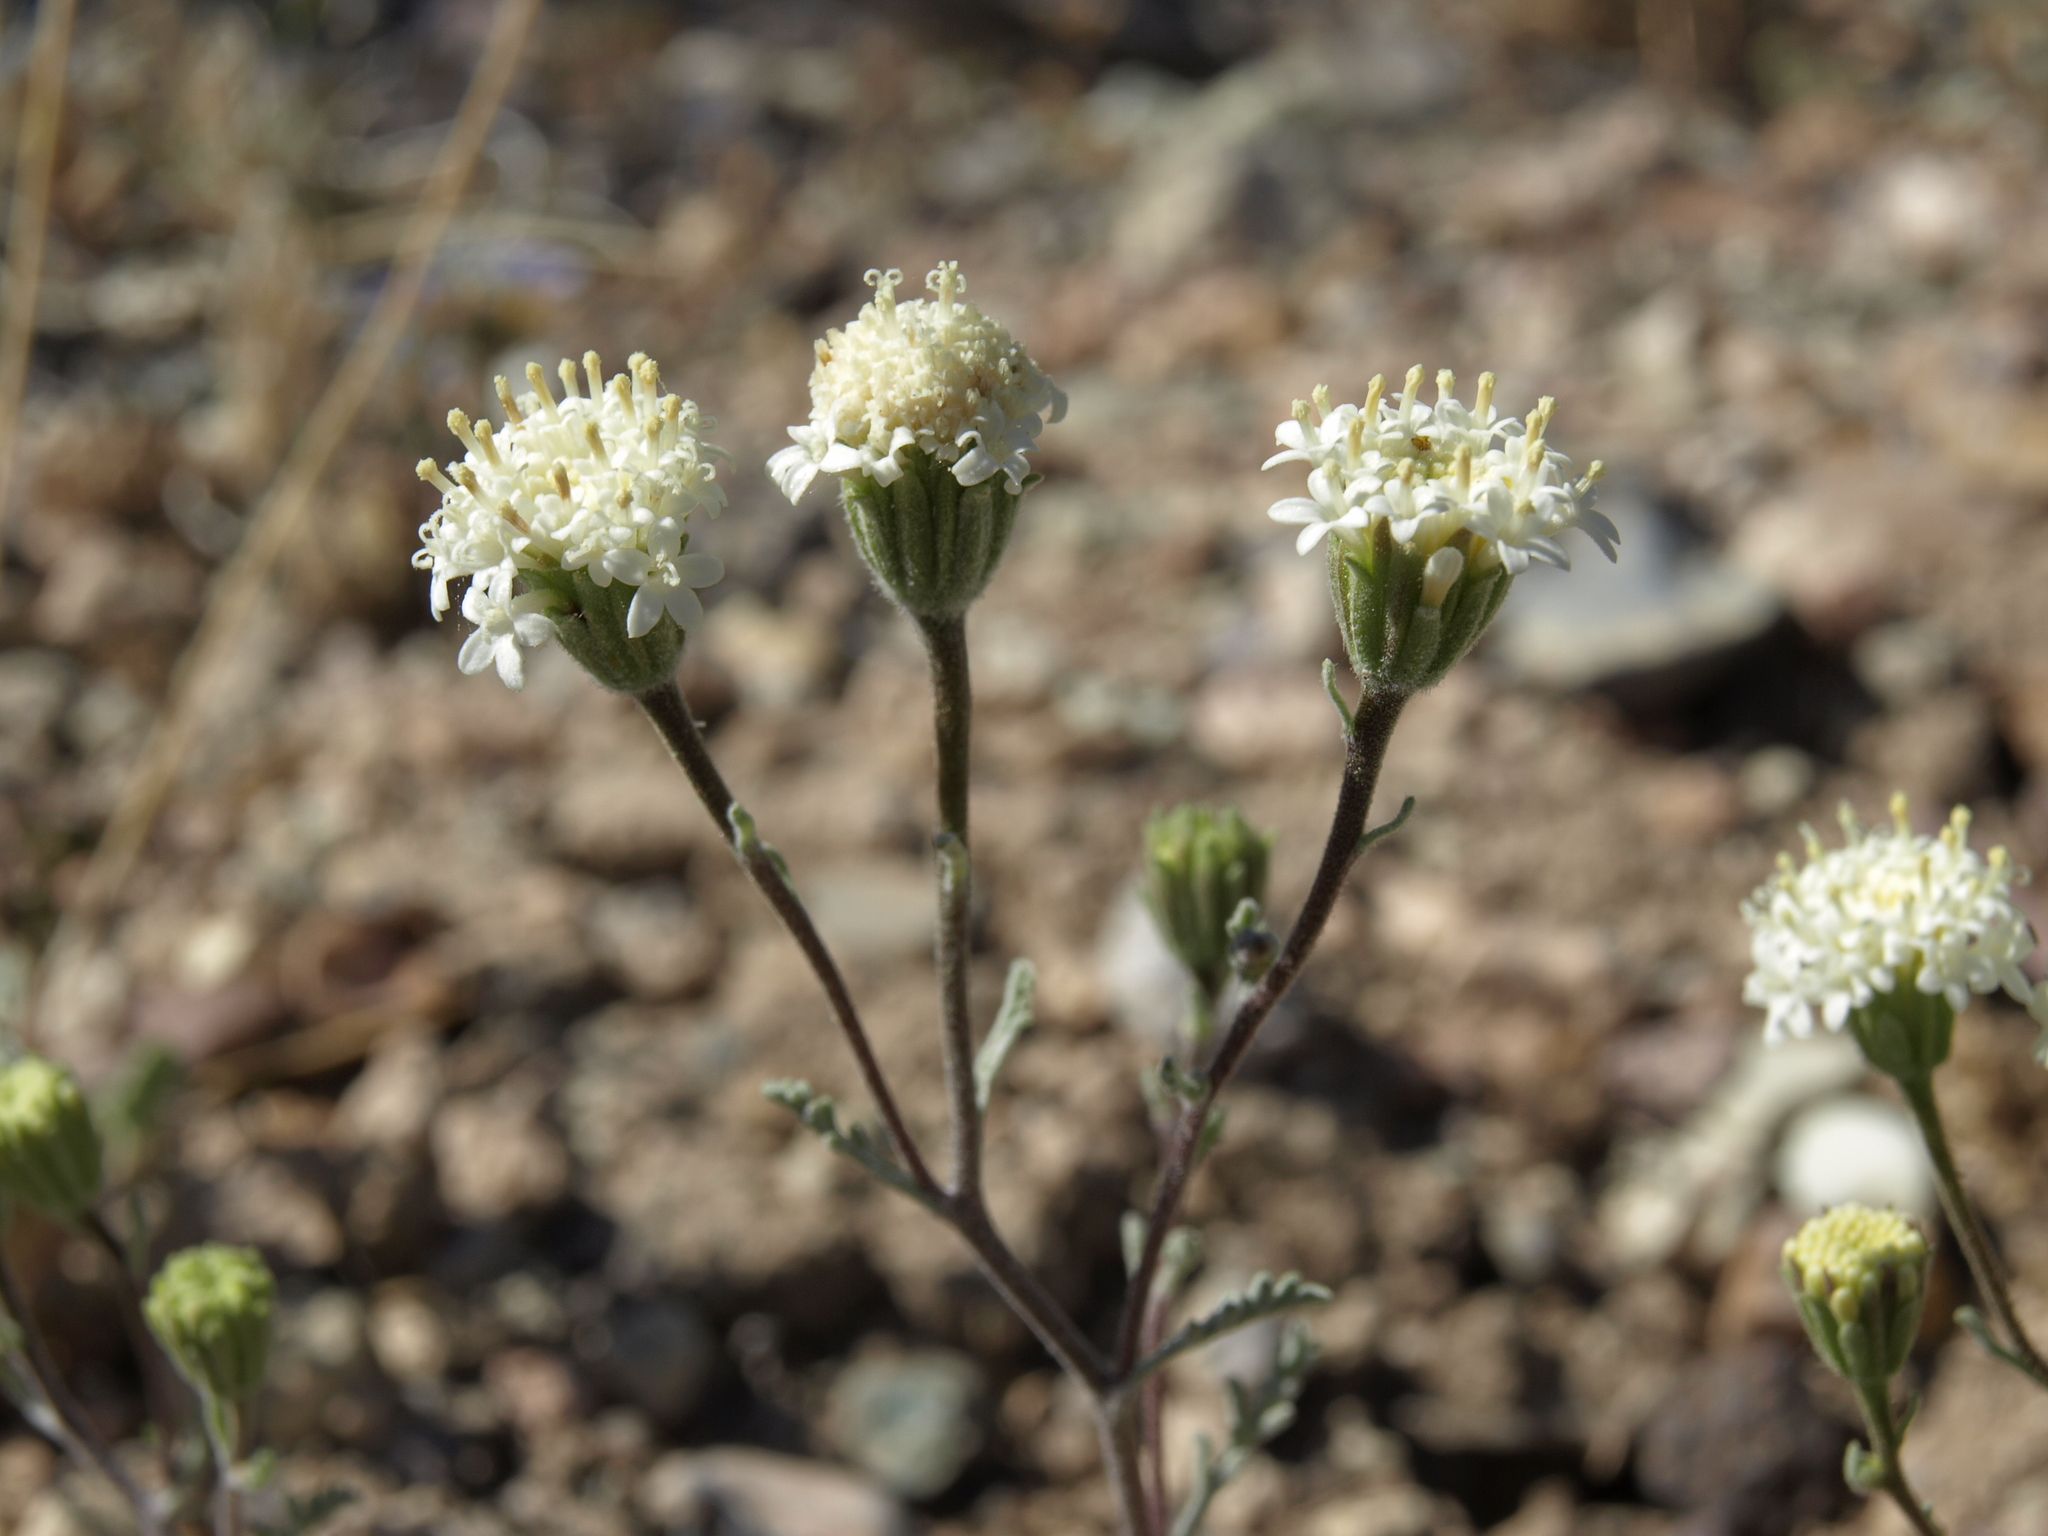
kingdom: Plantae
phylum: Tracheophyta
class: Magnoliopsida
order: Asterales
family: Asteraceae
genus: Chaenactis
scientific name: Chaenactis stevioides
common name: Desert pincushion
